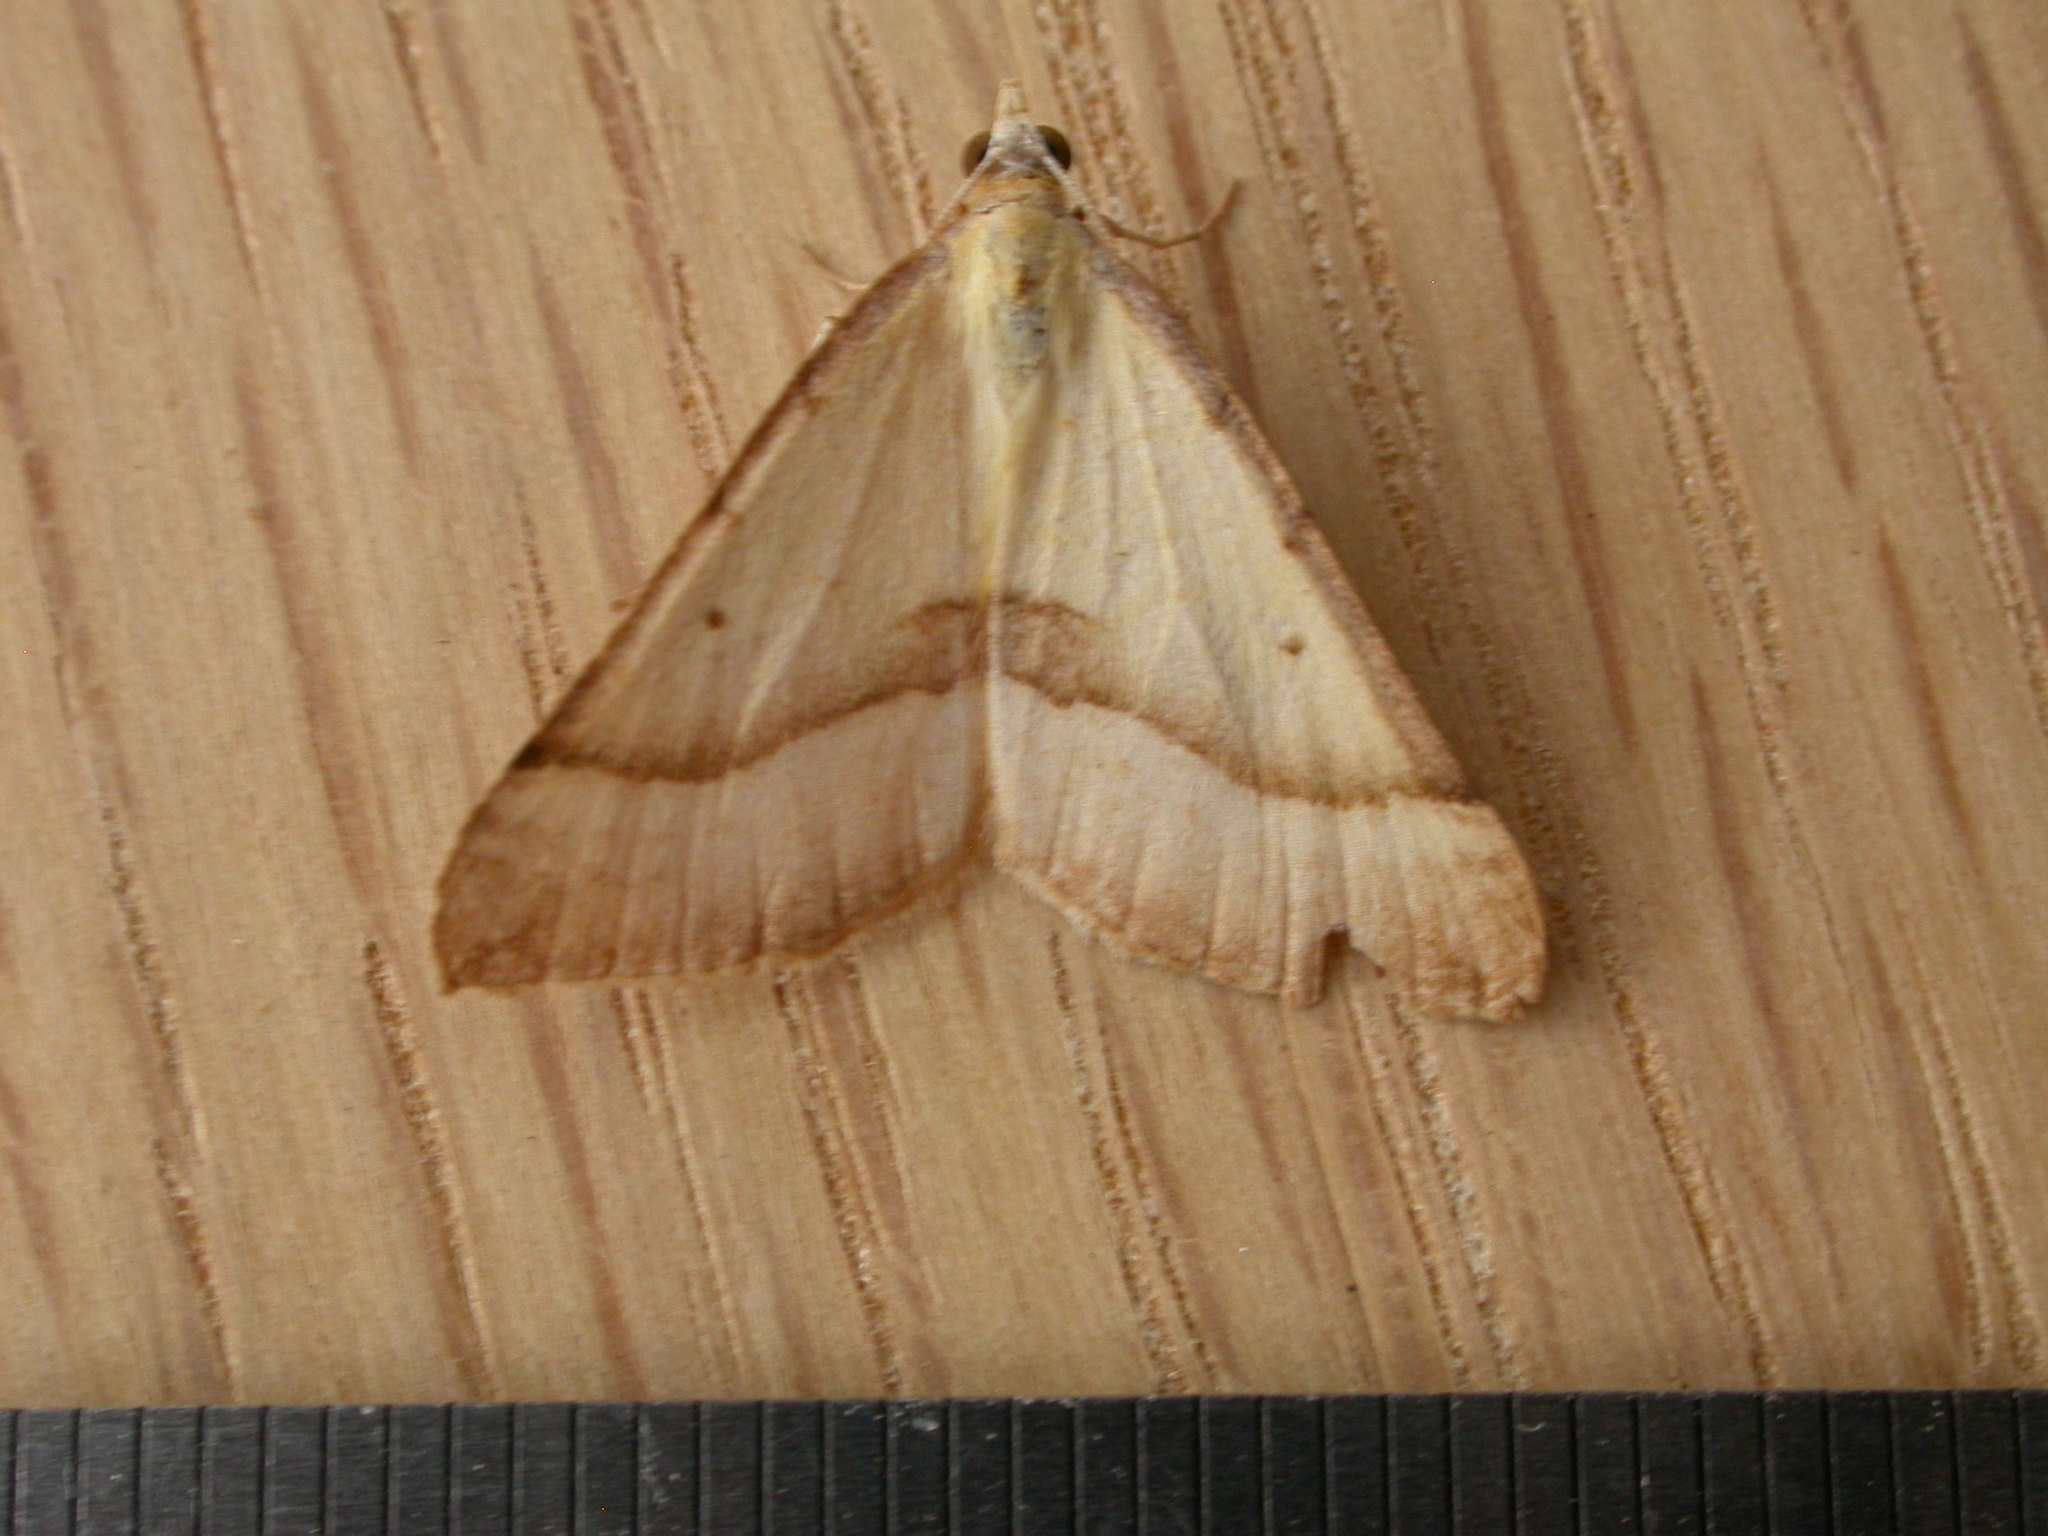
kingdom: Animalia
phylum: Arthropoda
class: Insecta
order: Lepidoptera
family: Geometridae
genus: Anachloris
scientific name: Anachloris subochraria
